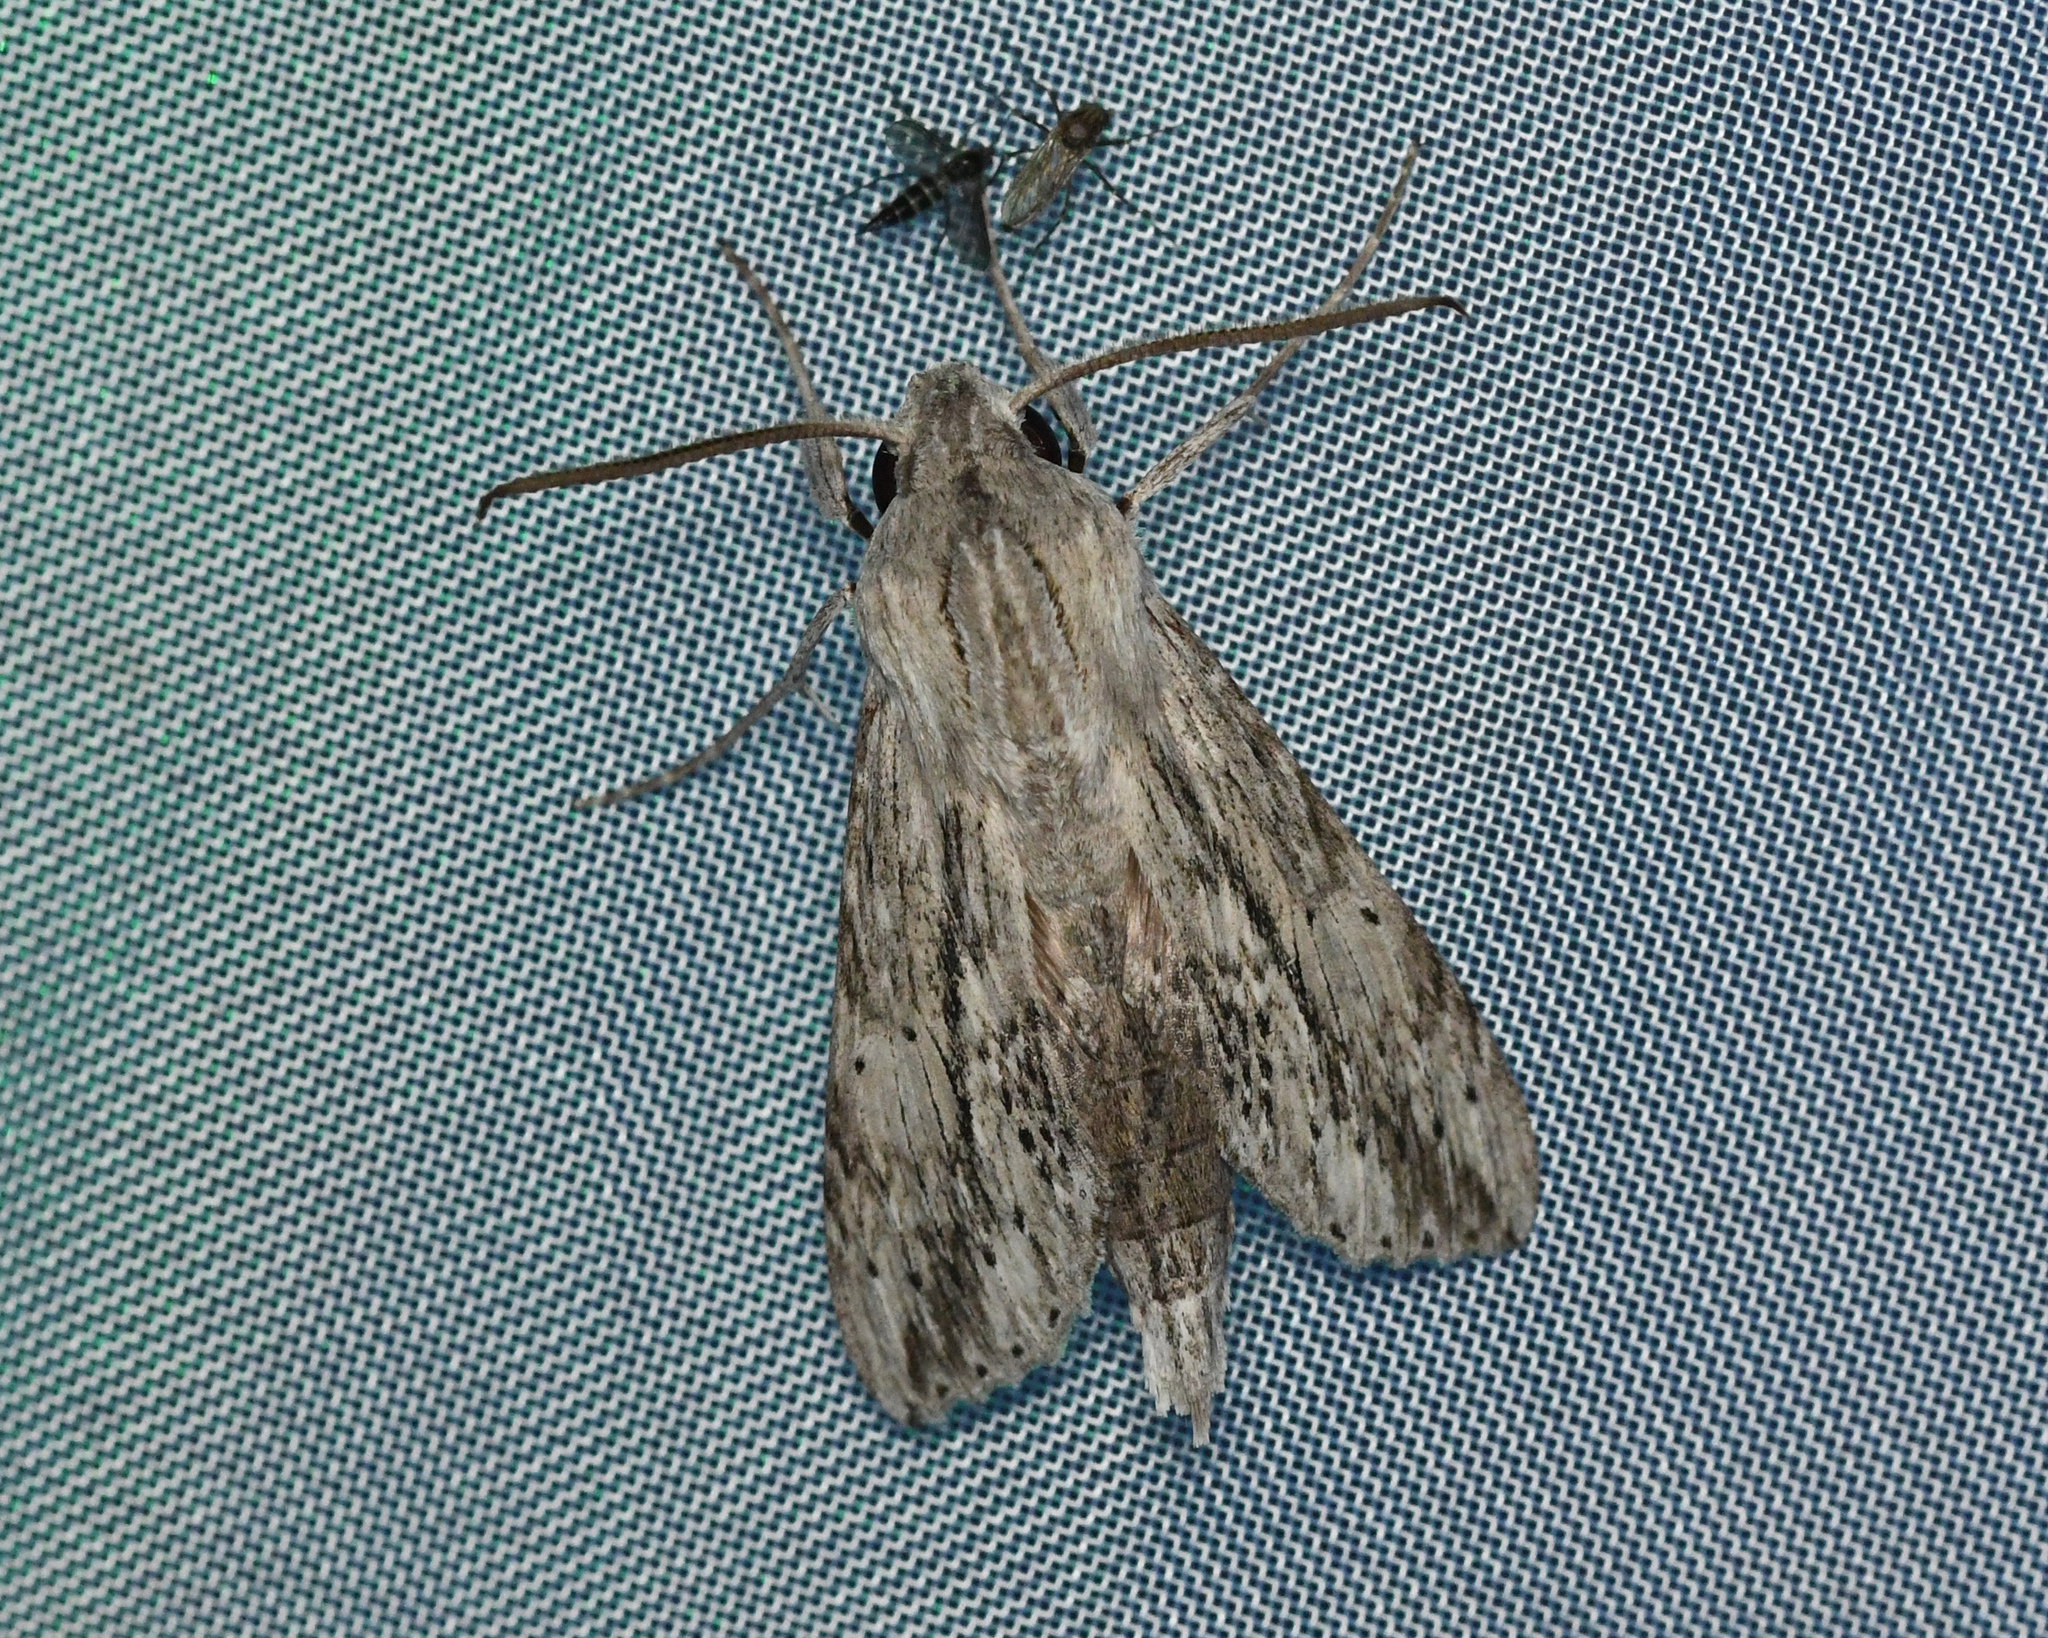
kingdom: Animalia
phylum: Arthropoda
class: Insecta
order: Lepidoptera
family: Sphingidae
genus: Erinnyis
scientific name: Erinnyis guttularis
